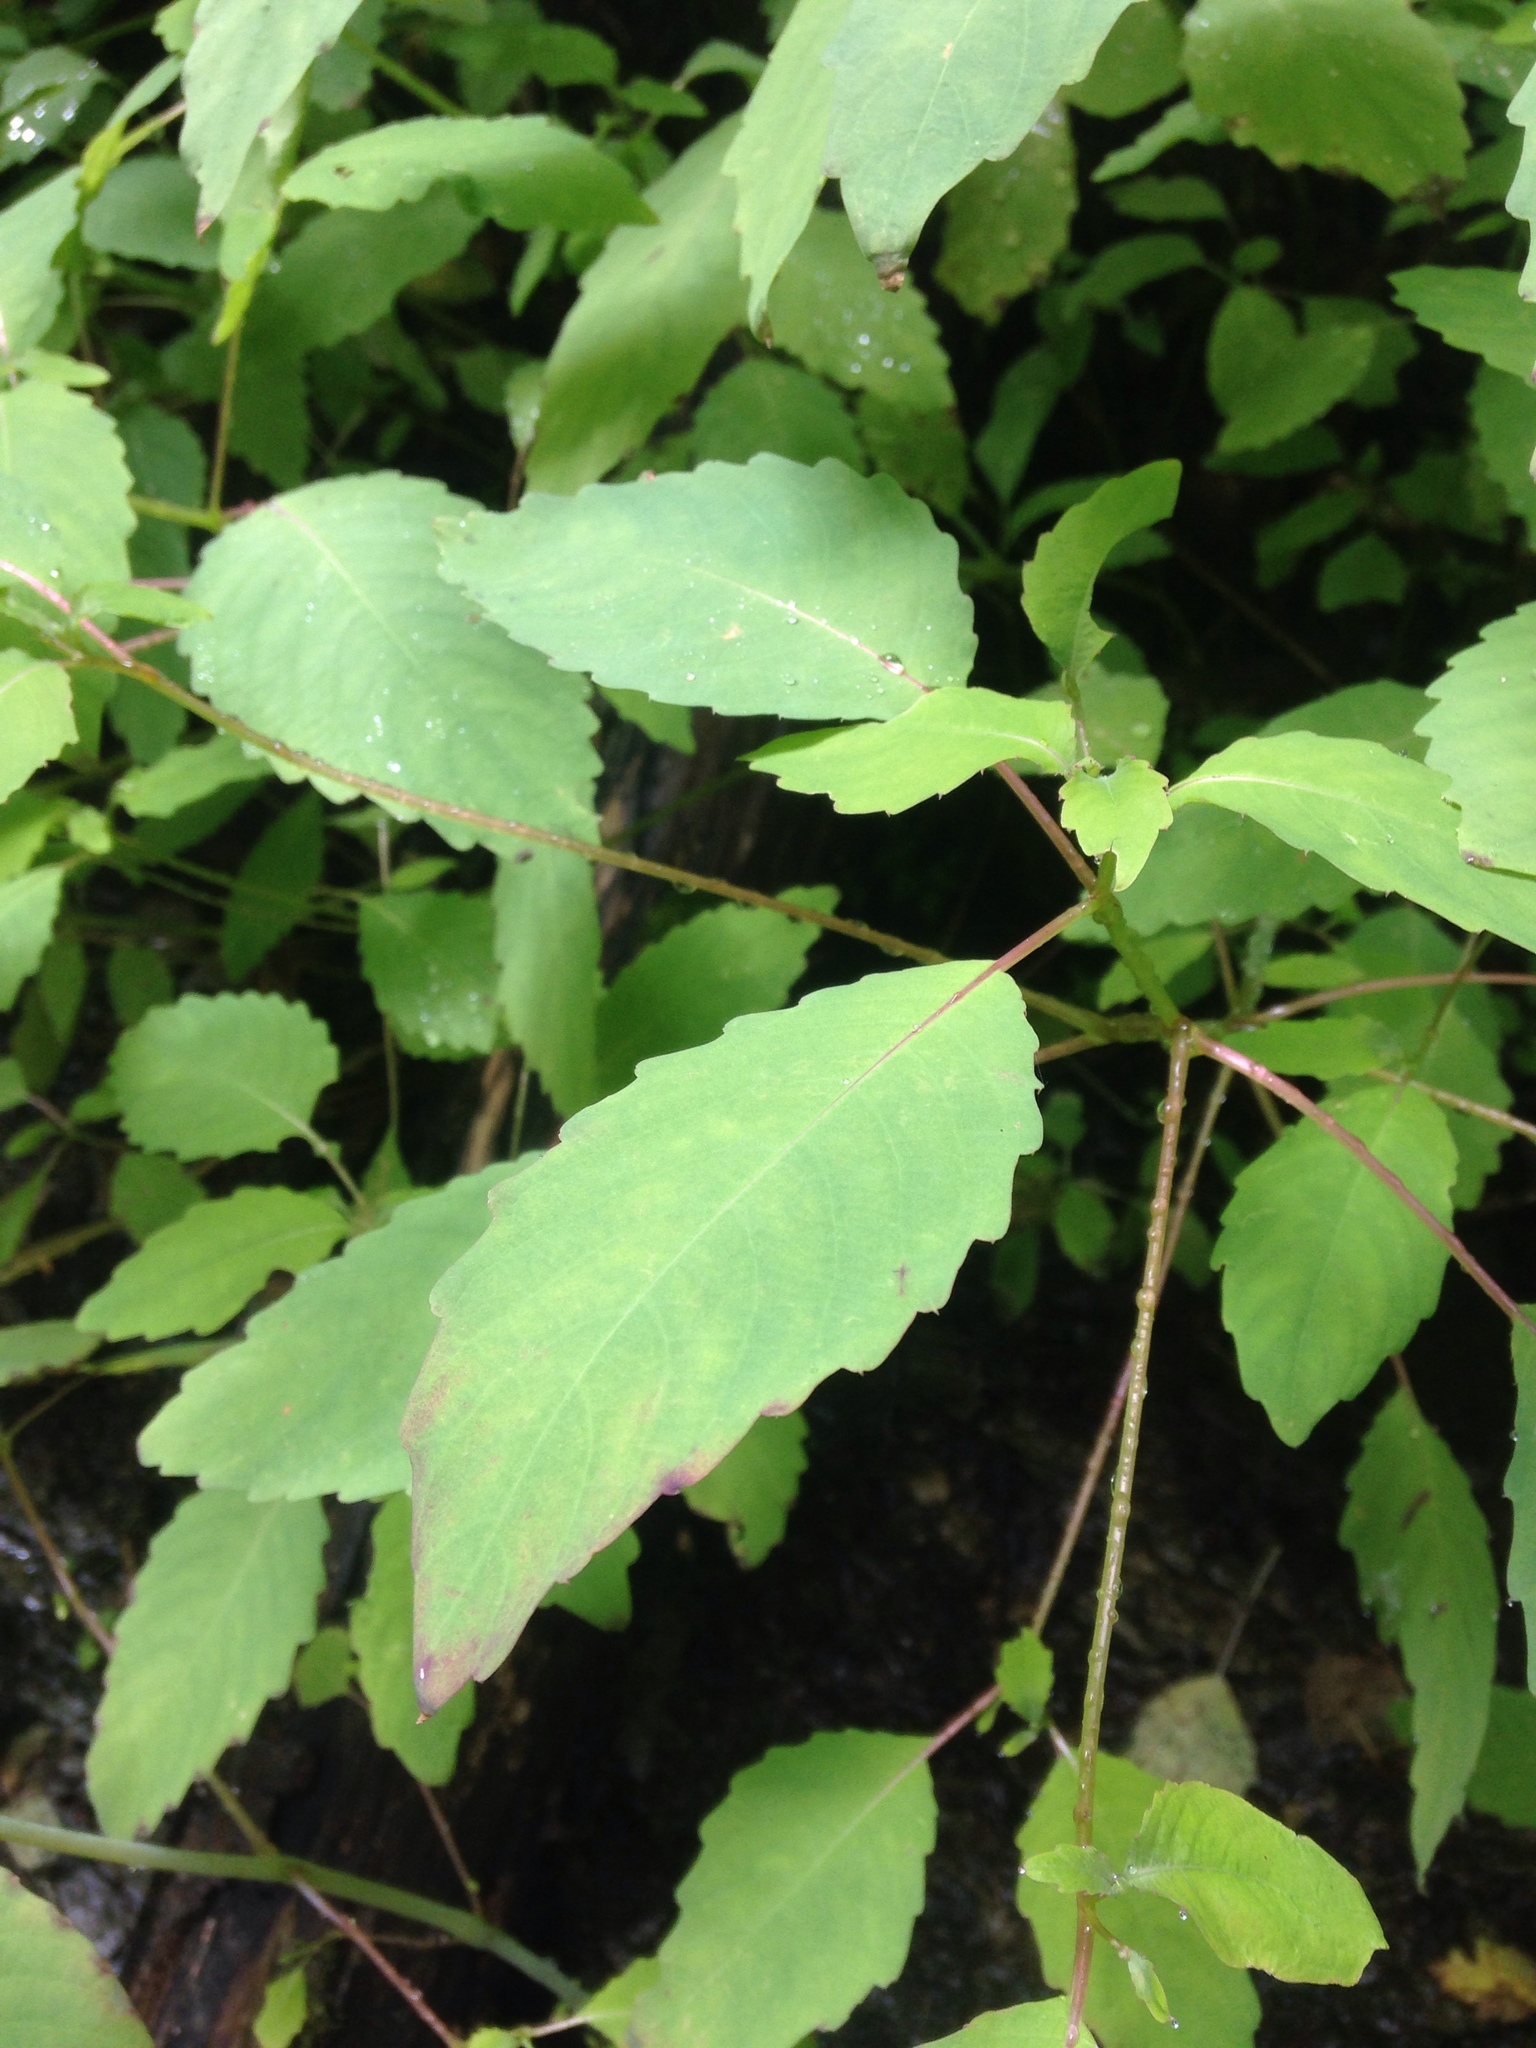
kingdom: Plantae
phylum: Tracheophyta
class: Magnoliopsida
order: Ericales
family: Balsaminaceae
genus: Impatiens
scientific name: Impatiens
